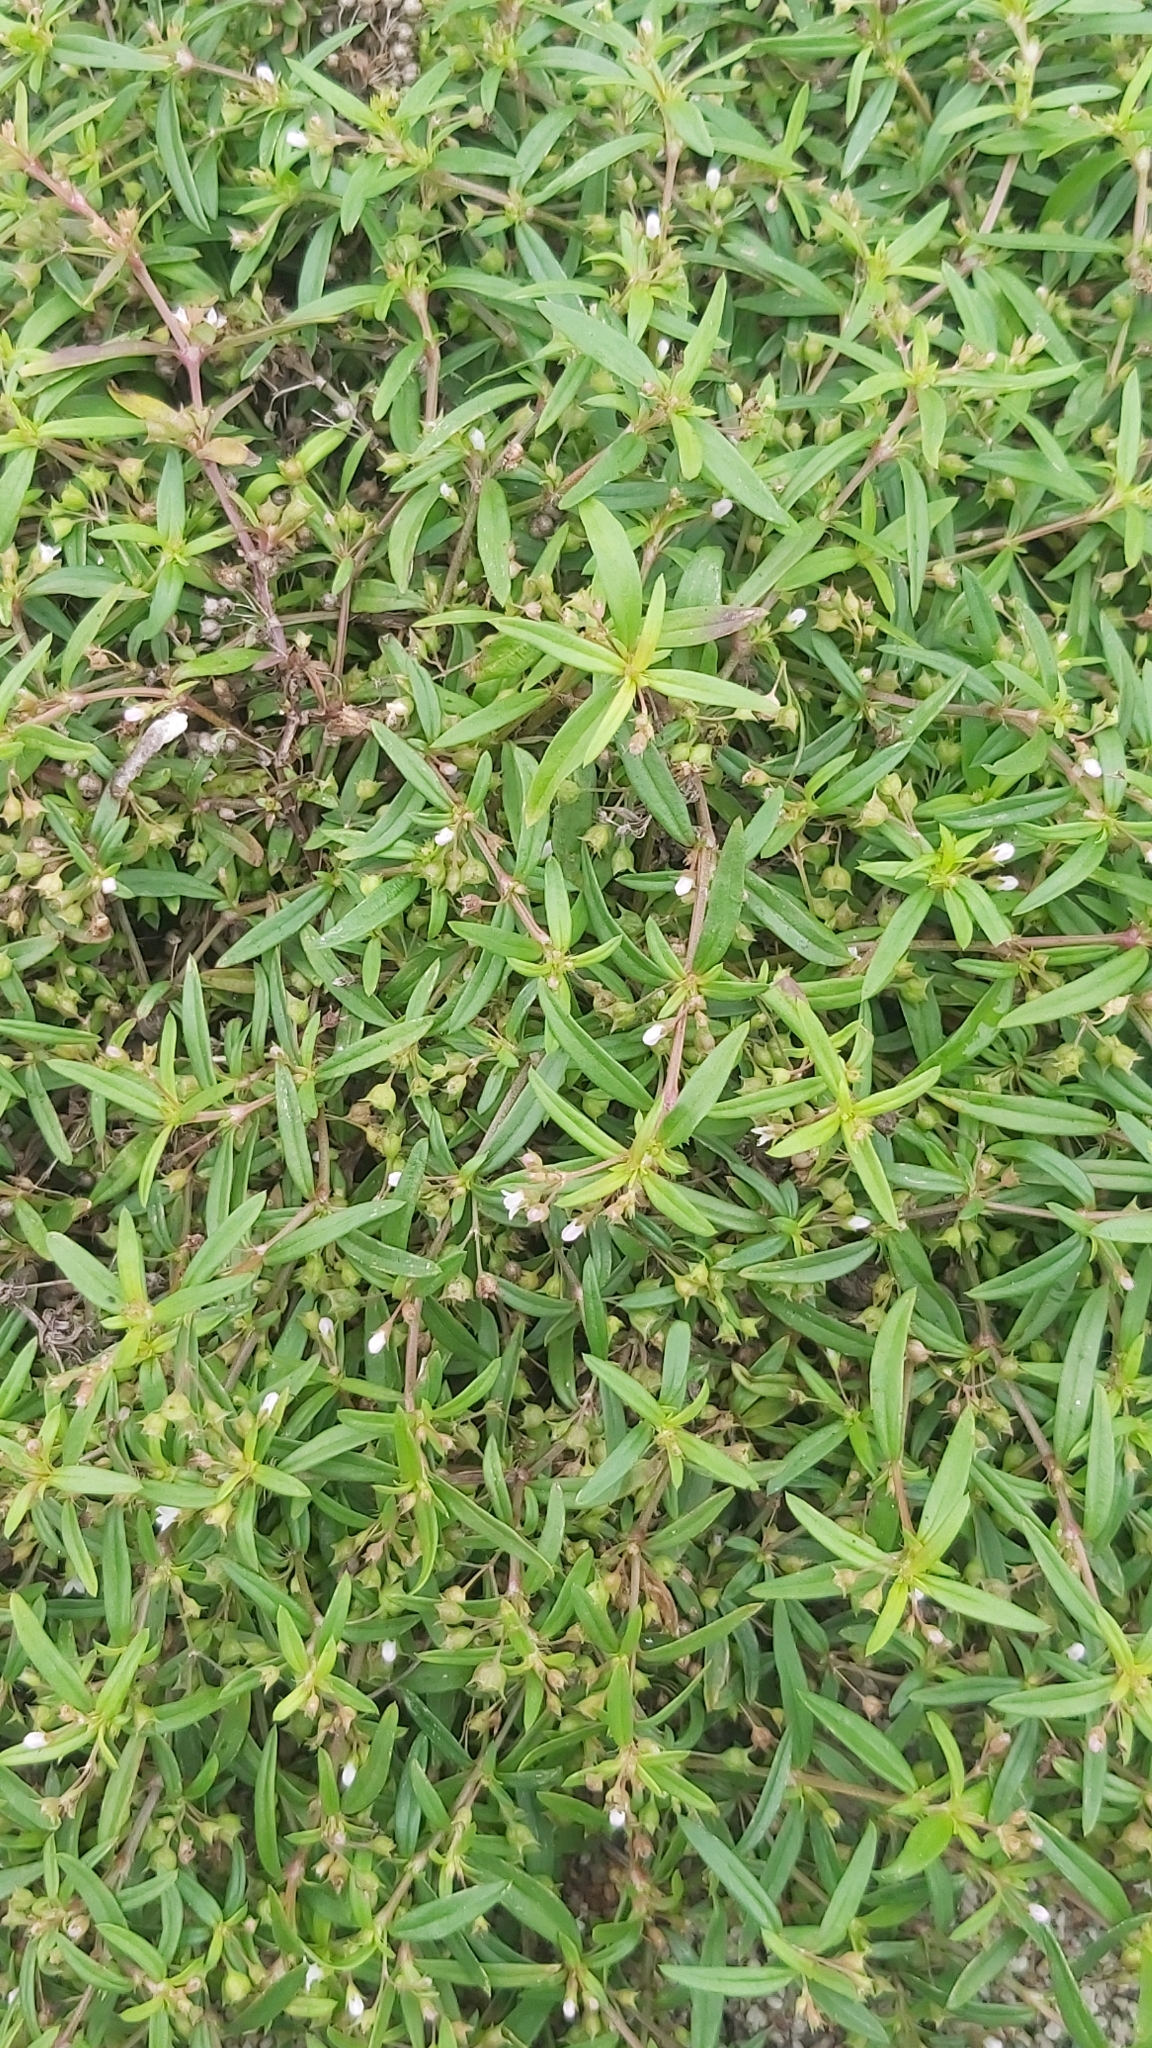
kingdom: Plantae
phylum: Tracheophyta
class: Magnoliopsida
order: Gentianales
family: Rubiaceae
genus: Oldenlandia
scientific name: Oldenlandia corymbosa
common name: Flat-top mille graines
